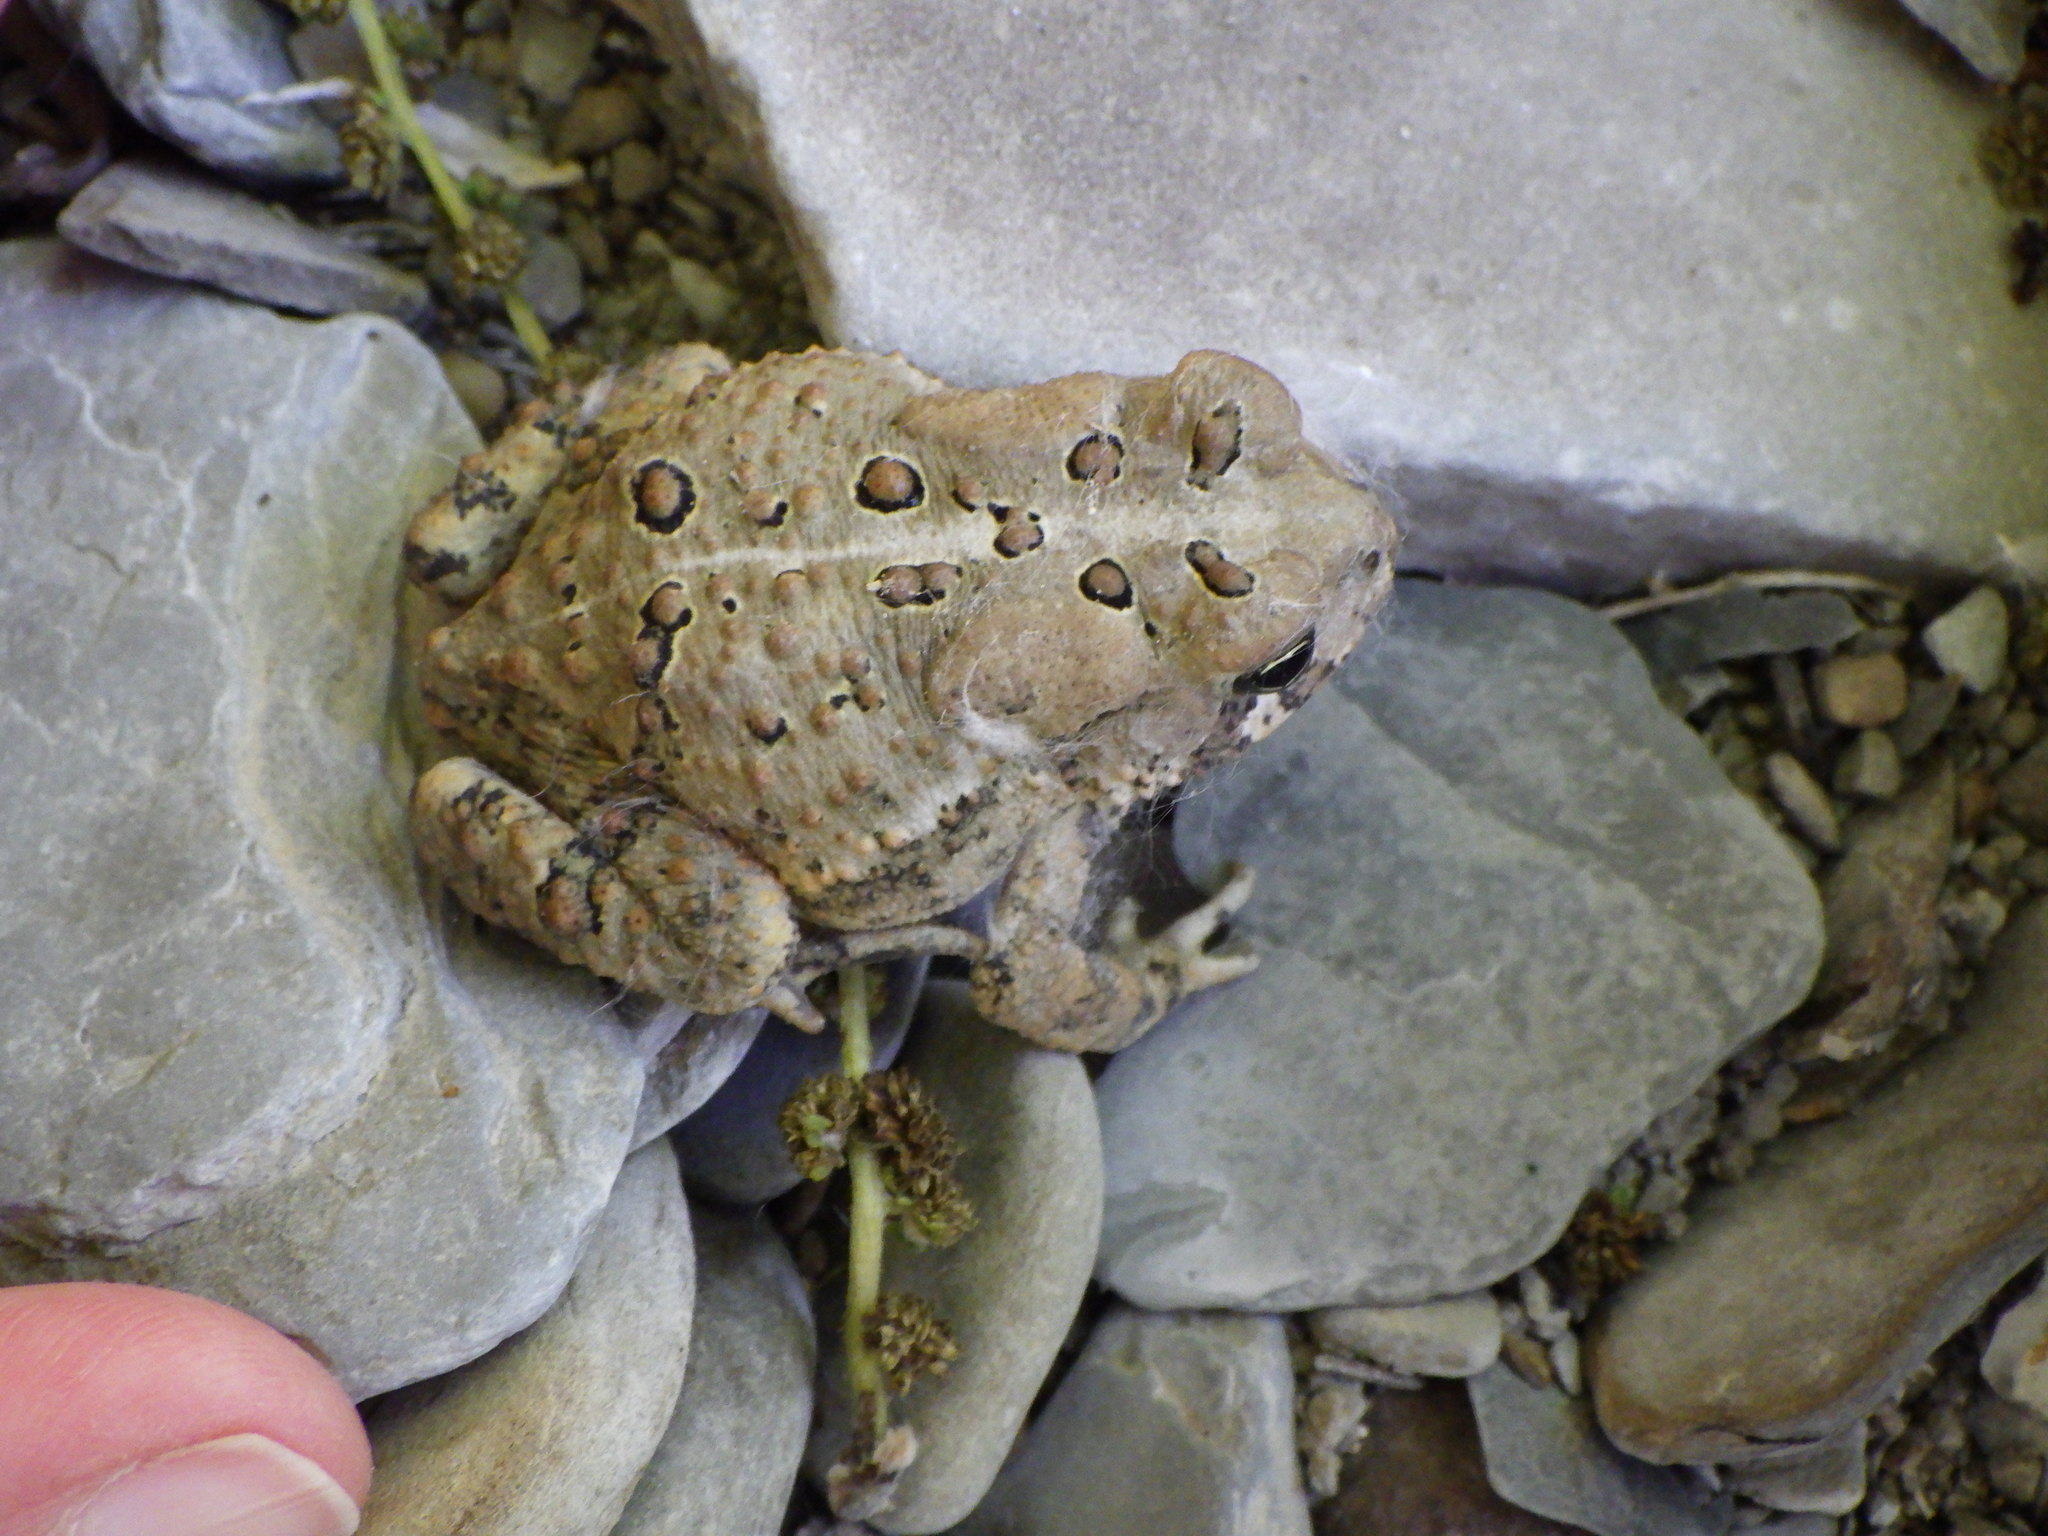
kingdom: Animalia
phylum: Chordata
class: Amphibia
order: Anura
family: Bufonidae
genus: Anaxyrus
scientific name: Anaxyrus americanus
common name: American toad
